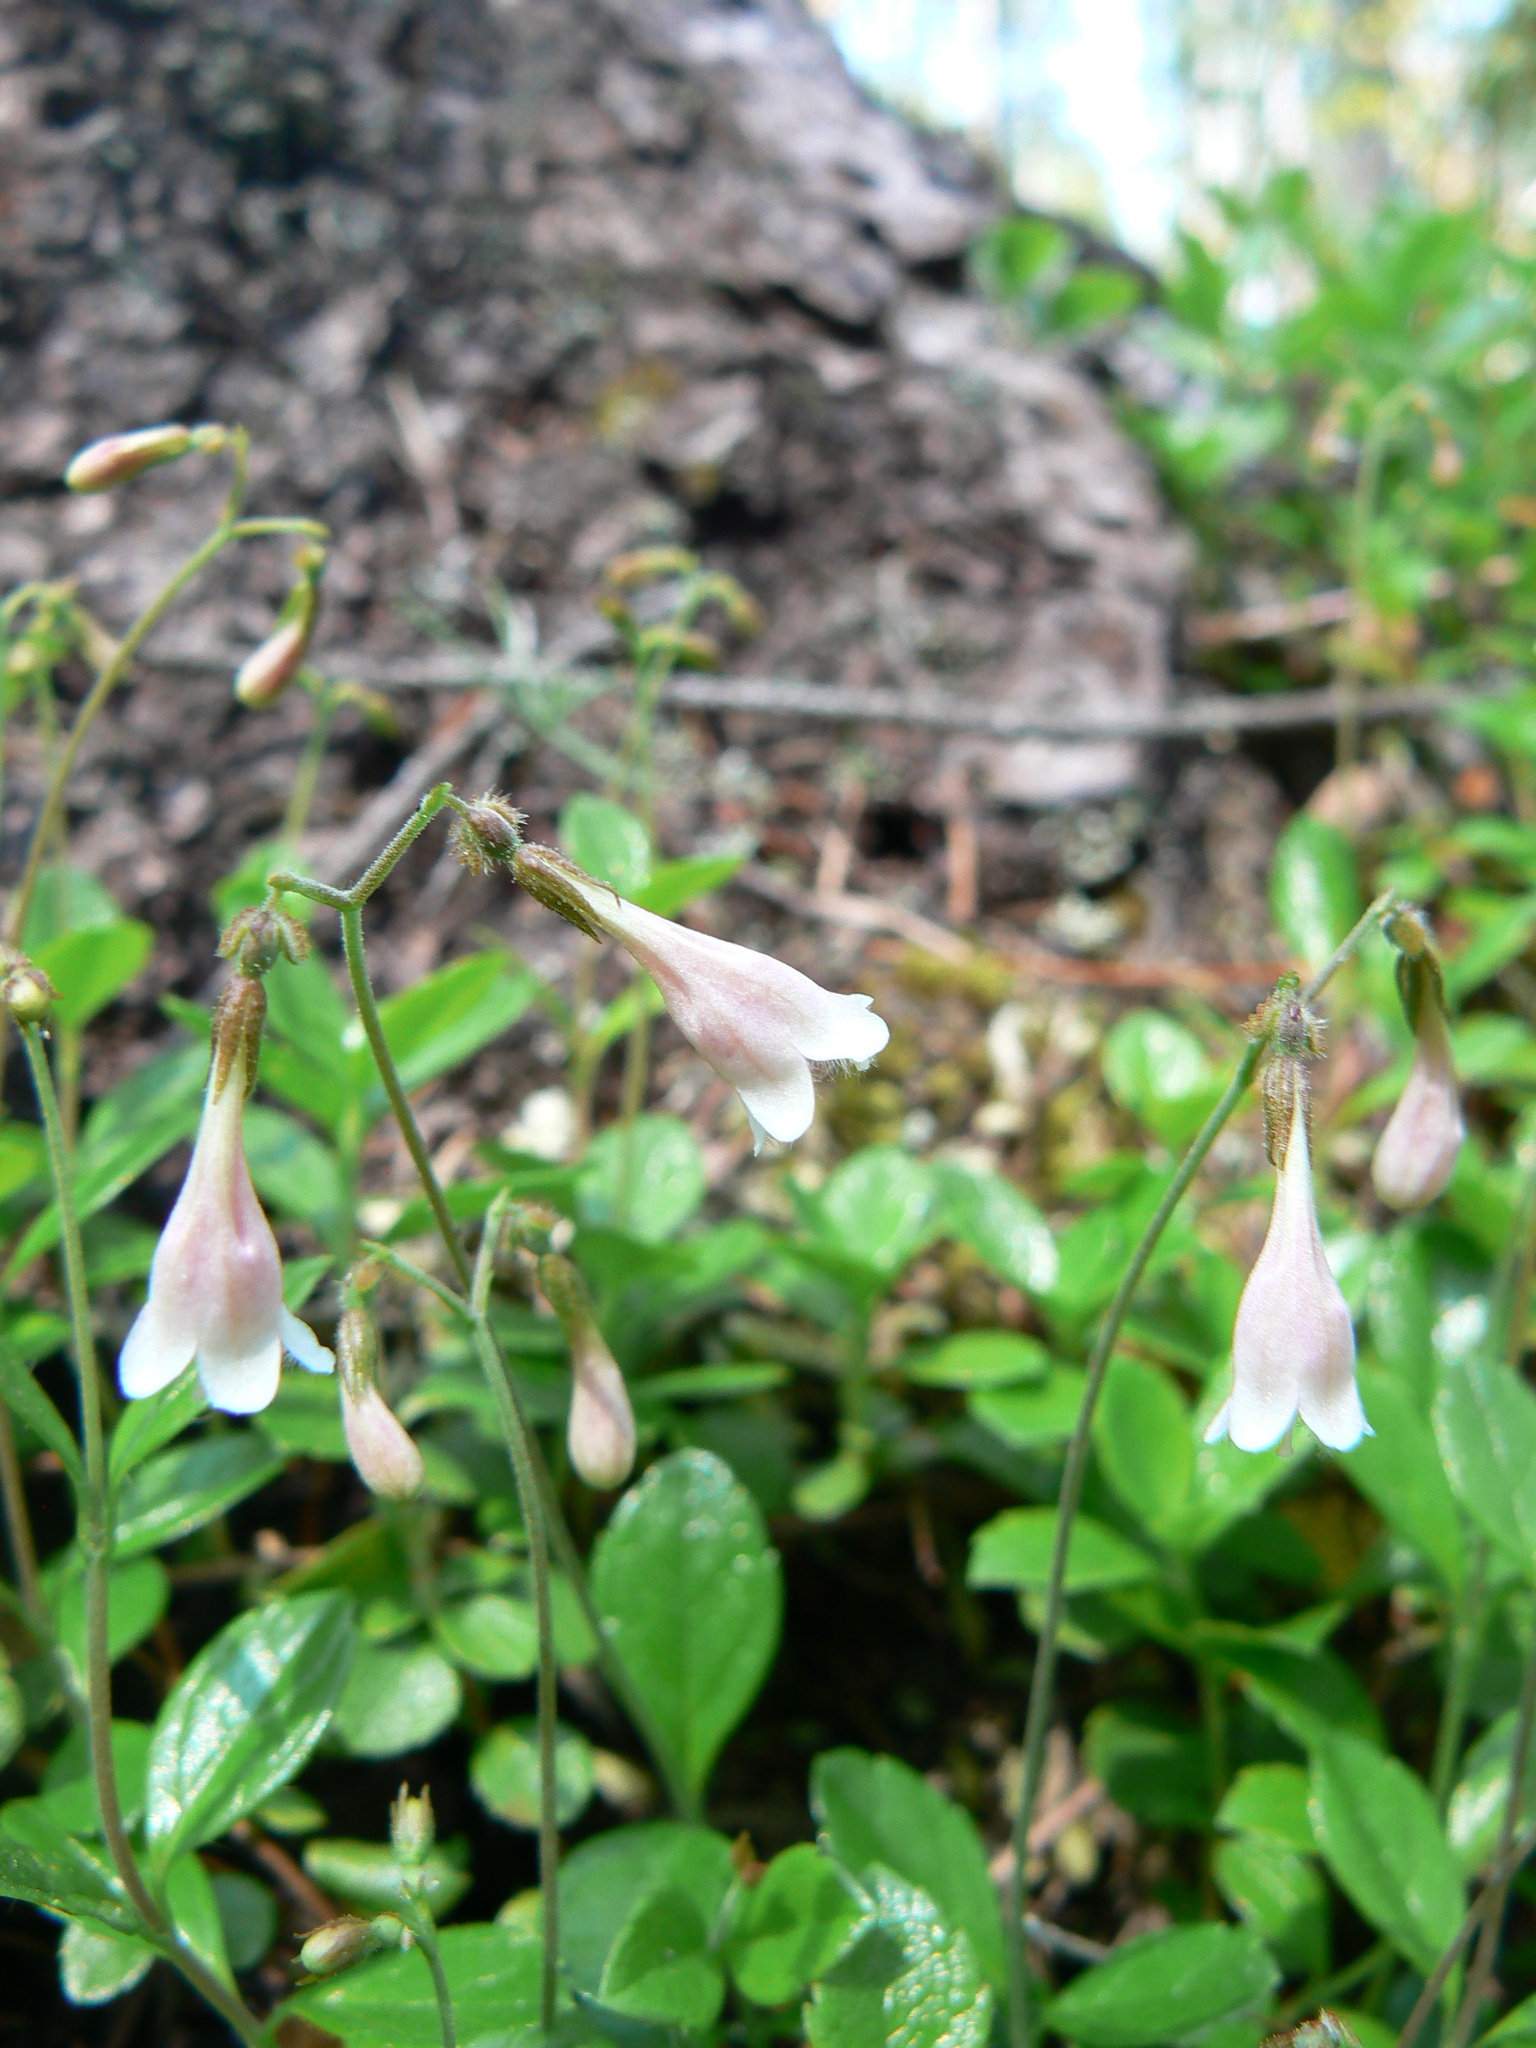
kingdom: Plantae
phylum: Tracheophyta
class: Magnoliopsida
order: Dipsacales
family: Caprifoliaceae
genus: Linnaea
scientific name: Linnaea borealis
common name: Twinflower
